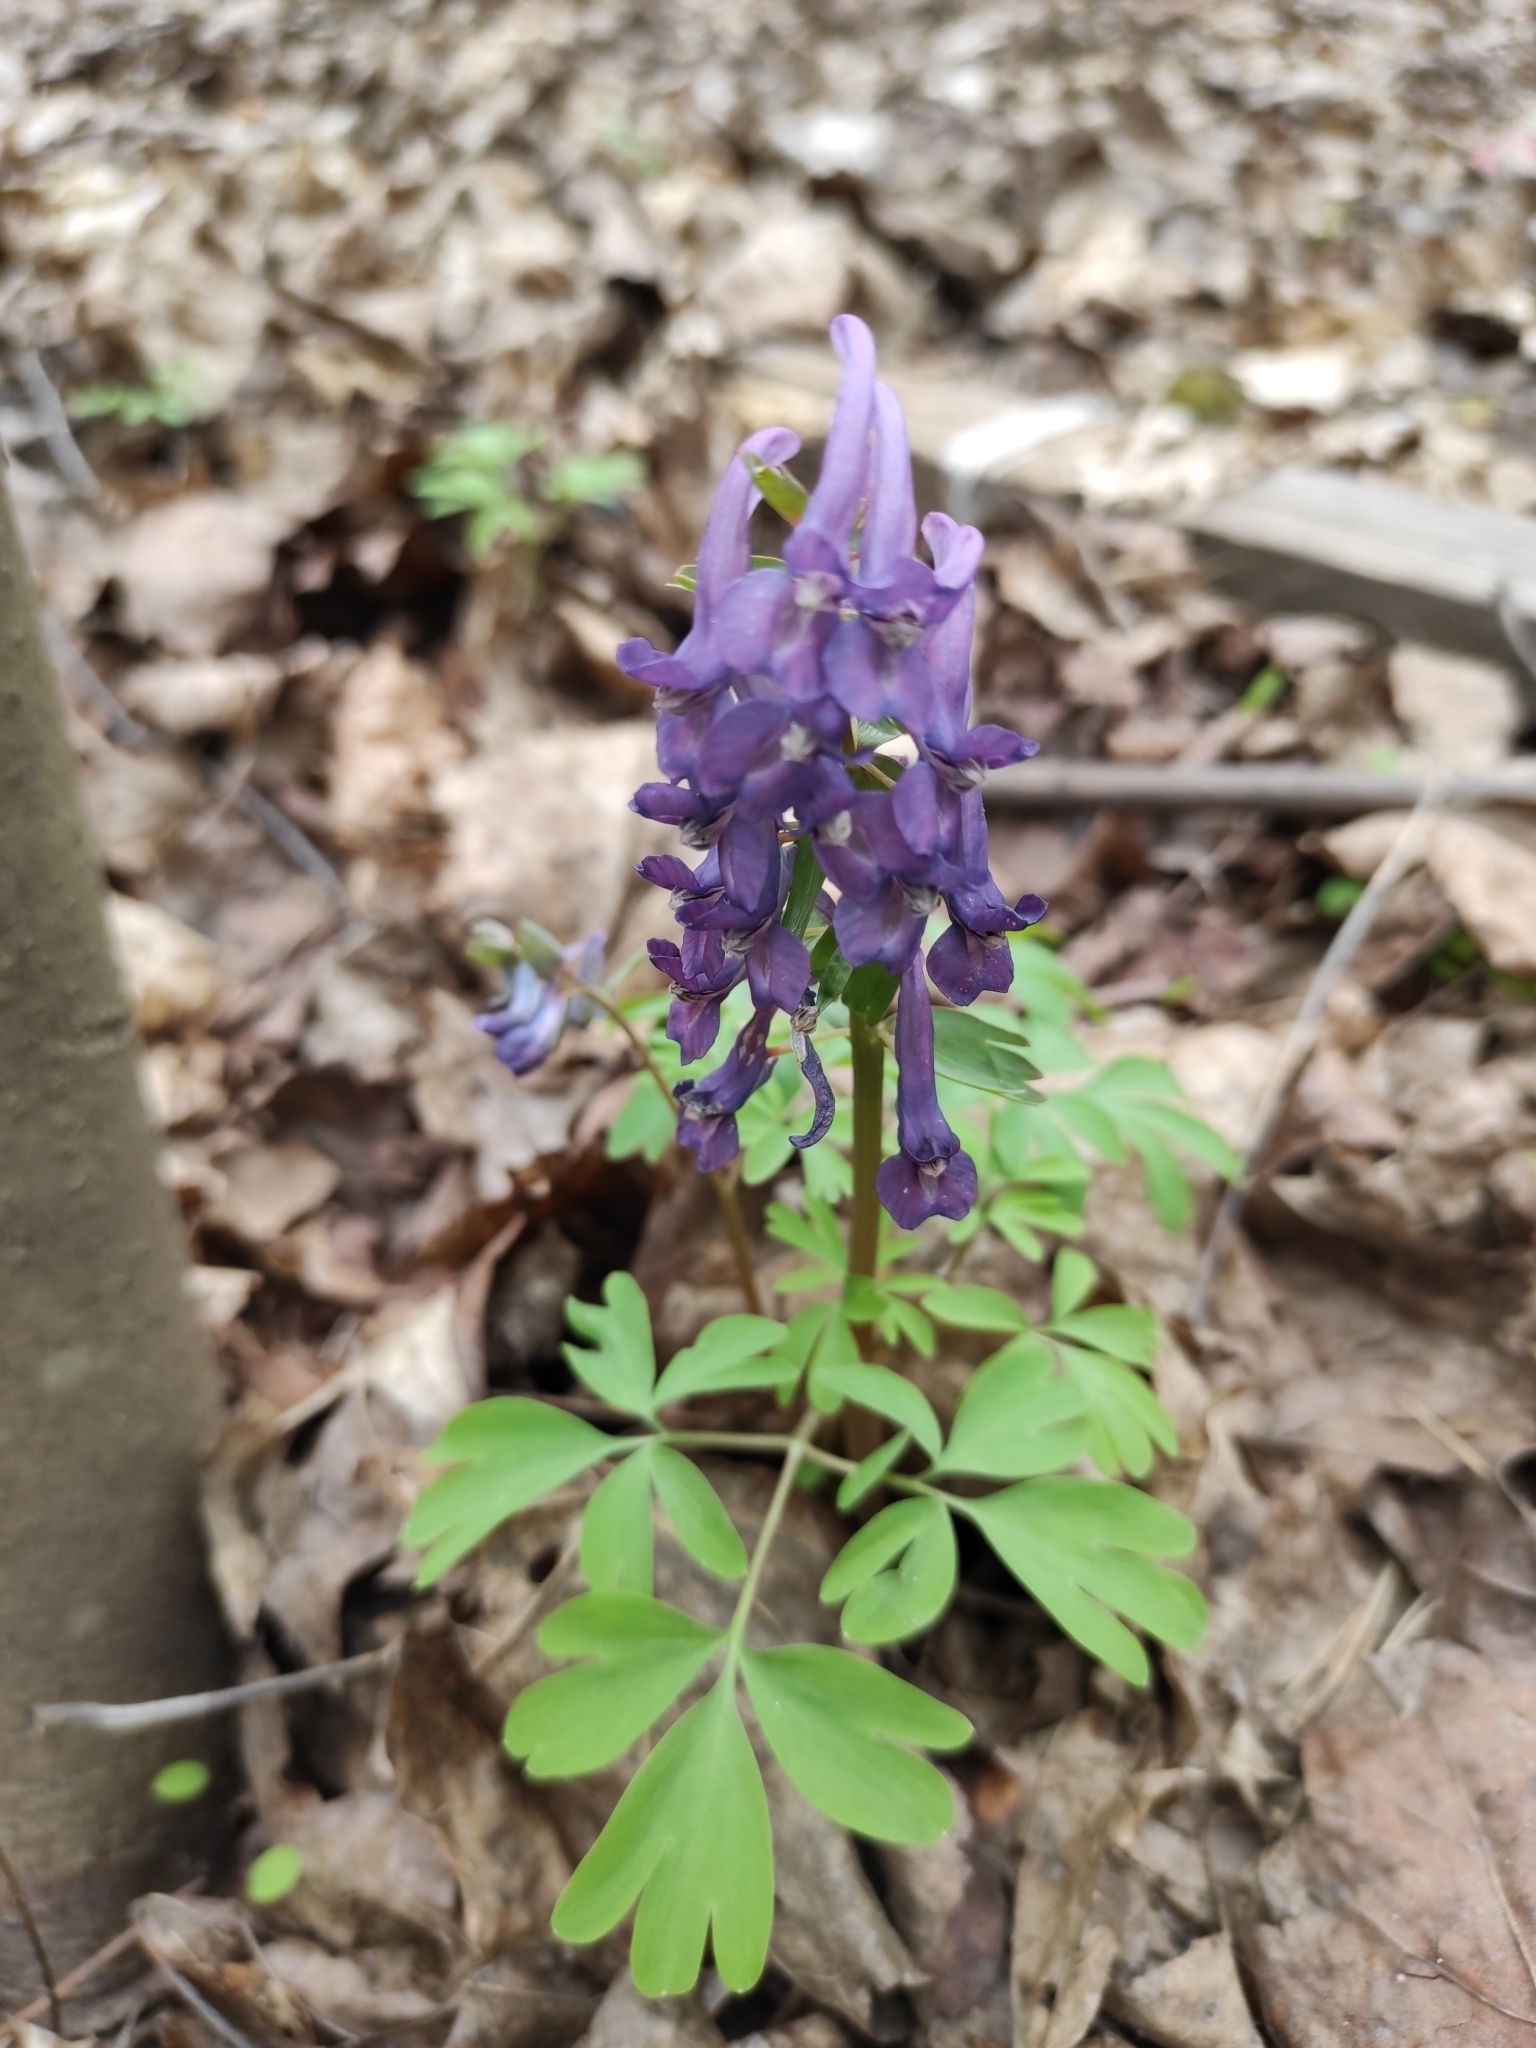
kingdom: Plantae
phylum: Tracheophyta
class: Magnoliopsida
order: Ranunculales
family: Papaveraceae
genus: Corydalis
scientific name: Corydalis solida
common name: Bird-in-a-bush
